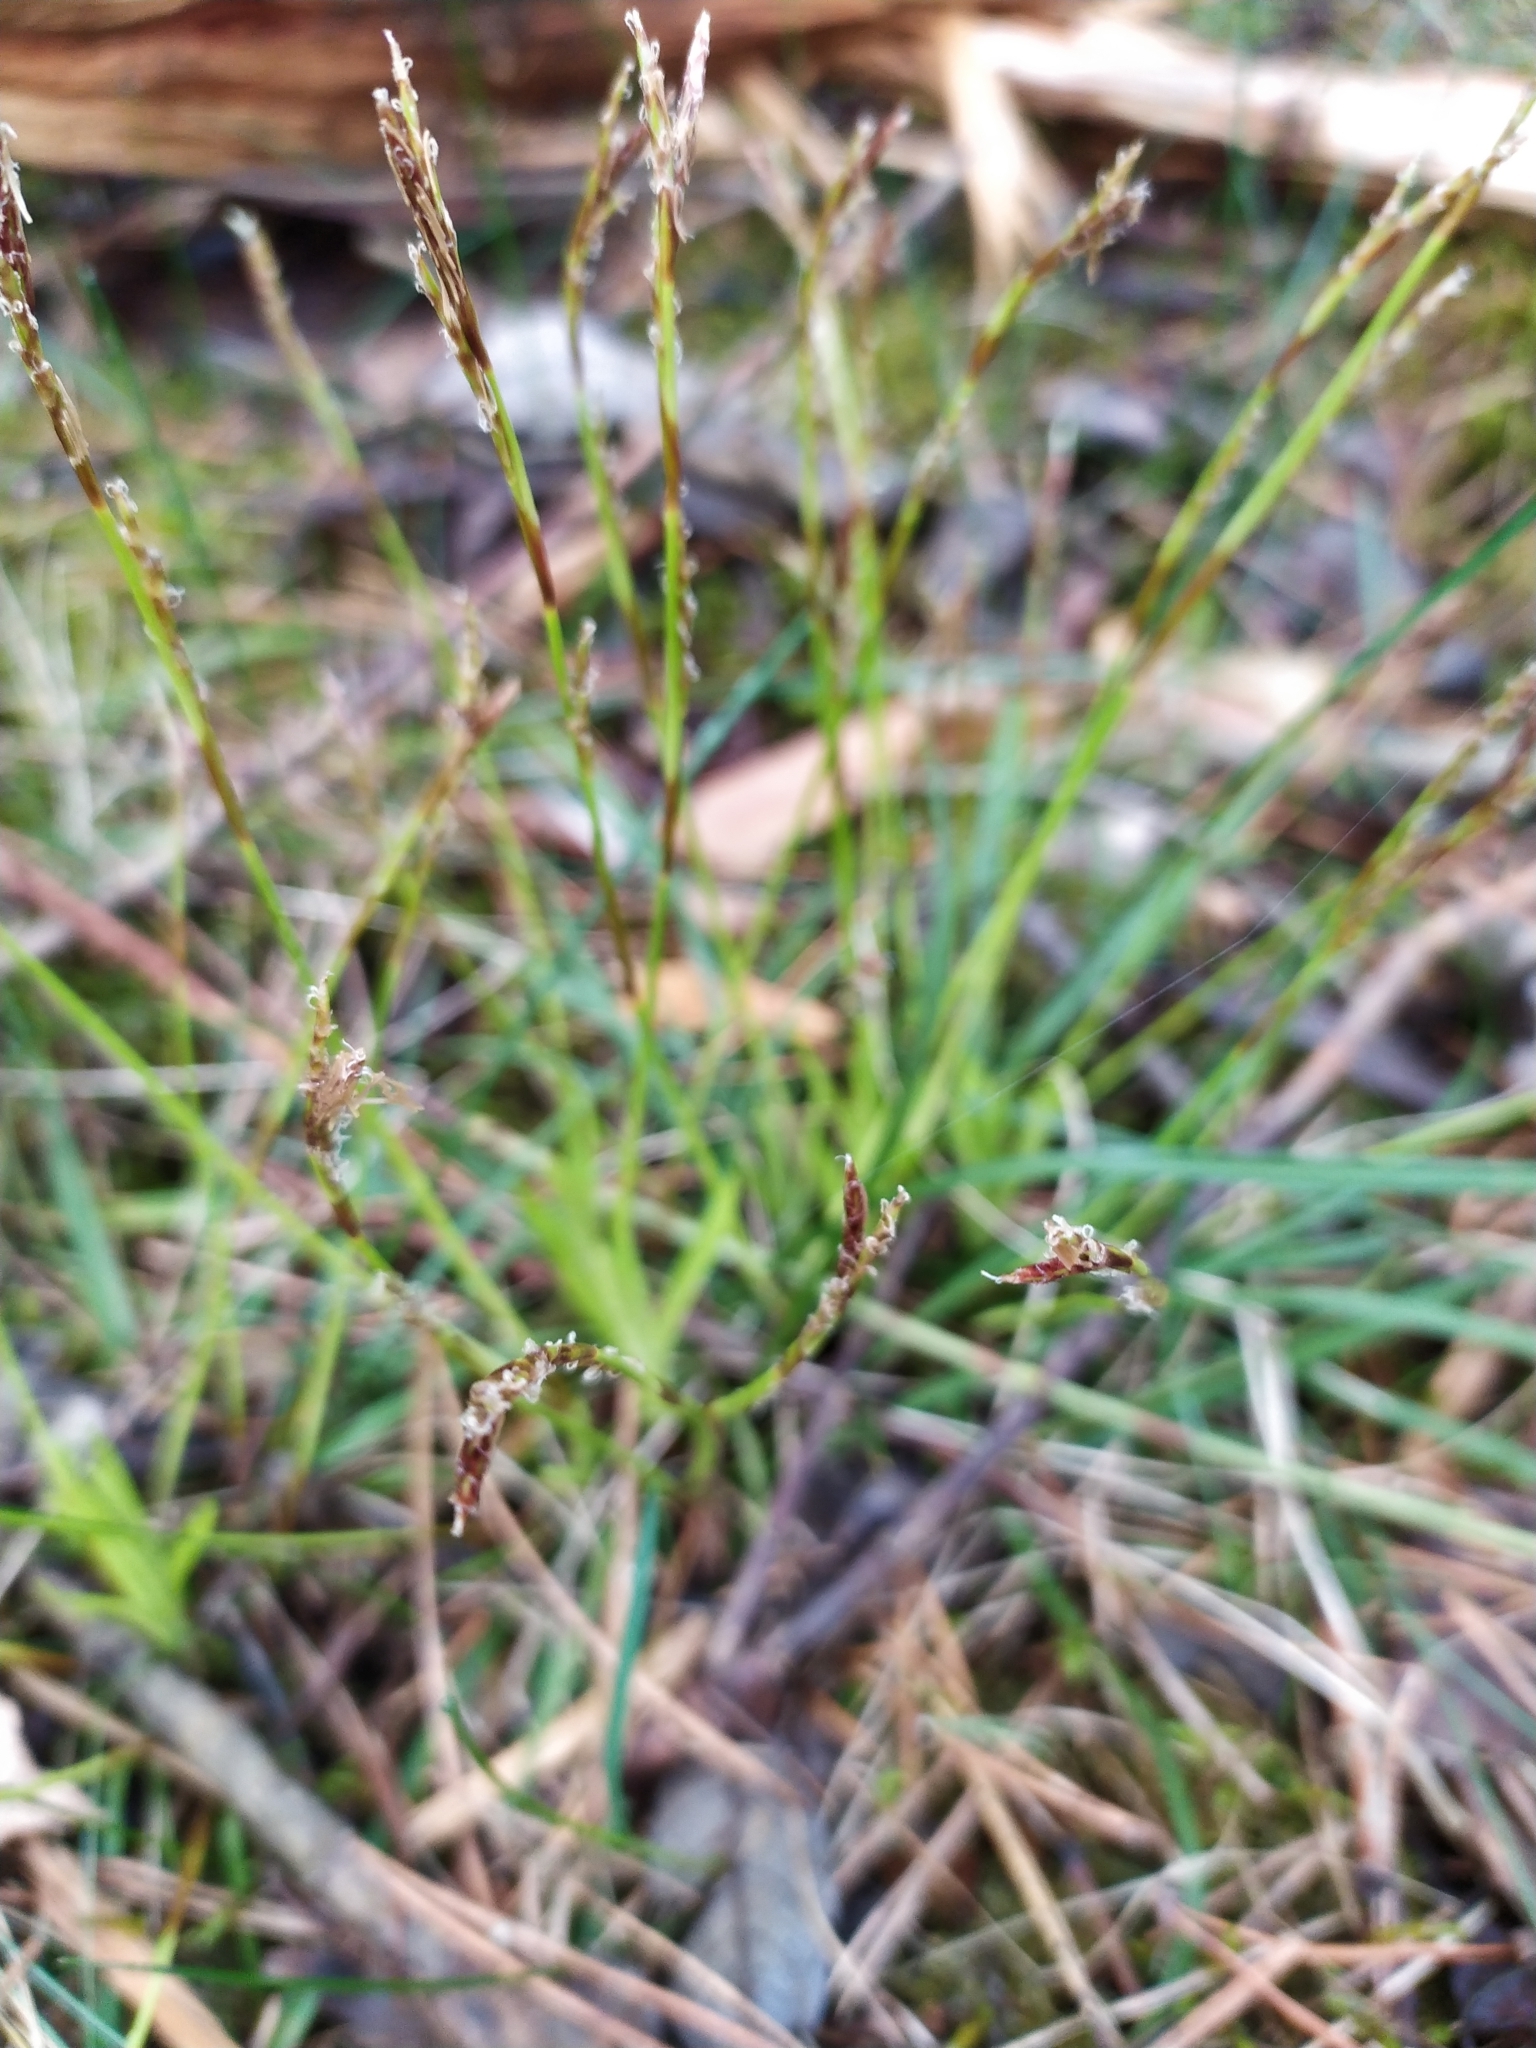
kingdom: Plantae
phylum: Tracheophyta
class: Liliopsida
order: Poales
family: Cyperaceae
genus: Carex
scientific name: Carex digitata
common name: Fingered sedge
